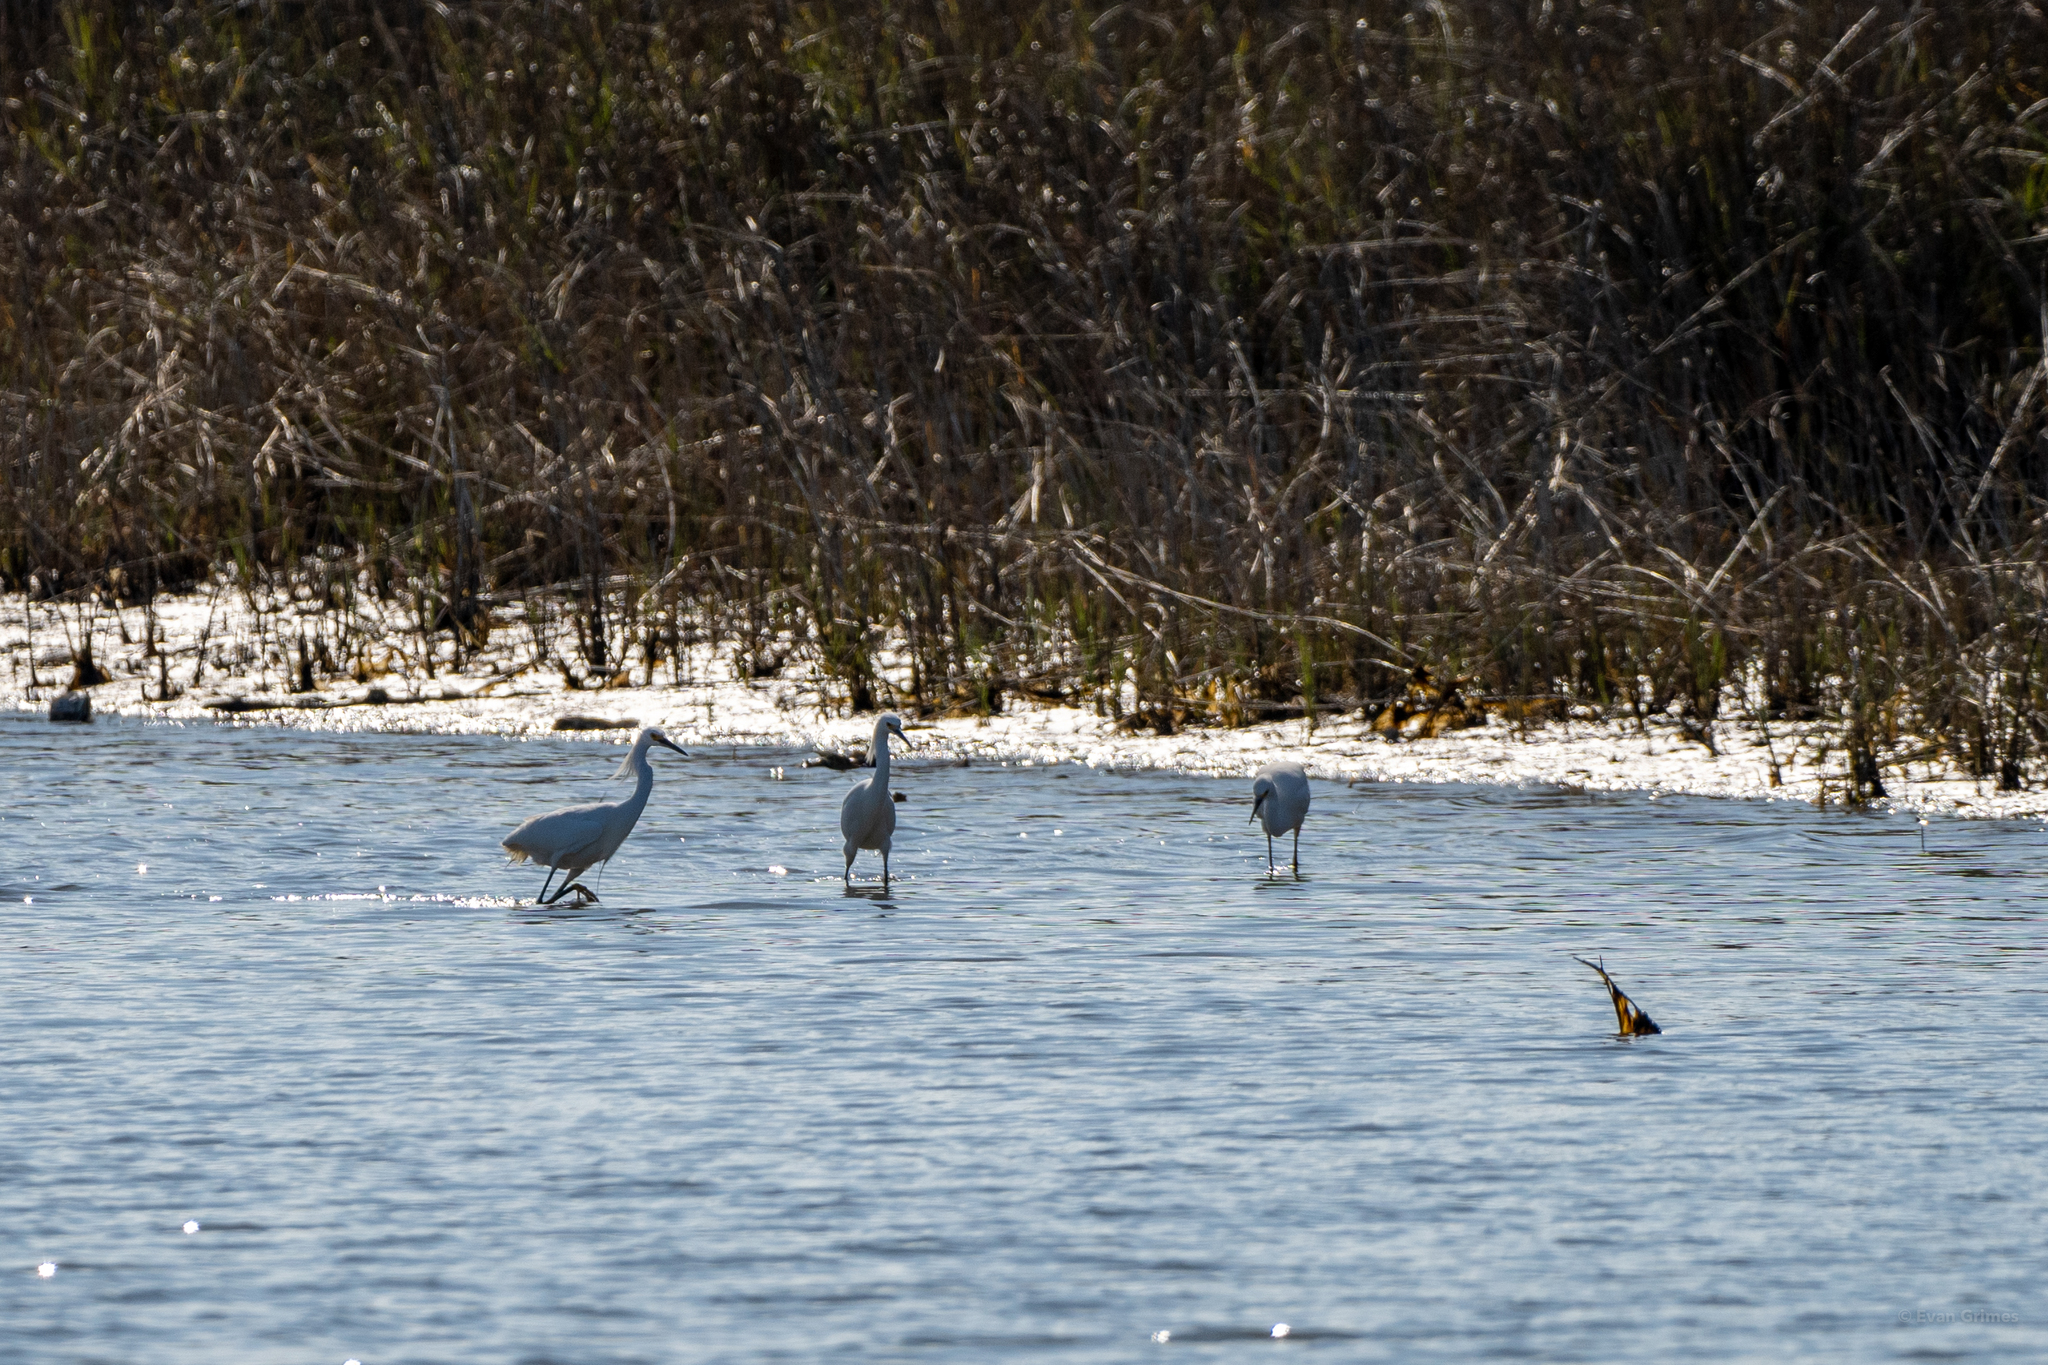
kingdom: Animalia
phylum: Chordata
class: Aves
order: Pelecaniformes
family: Ardeidae
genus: Egretta
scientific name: Egretta thula
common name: Snowy egret
